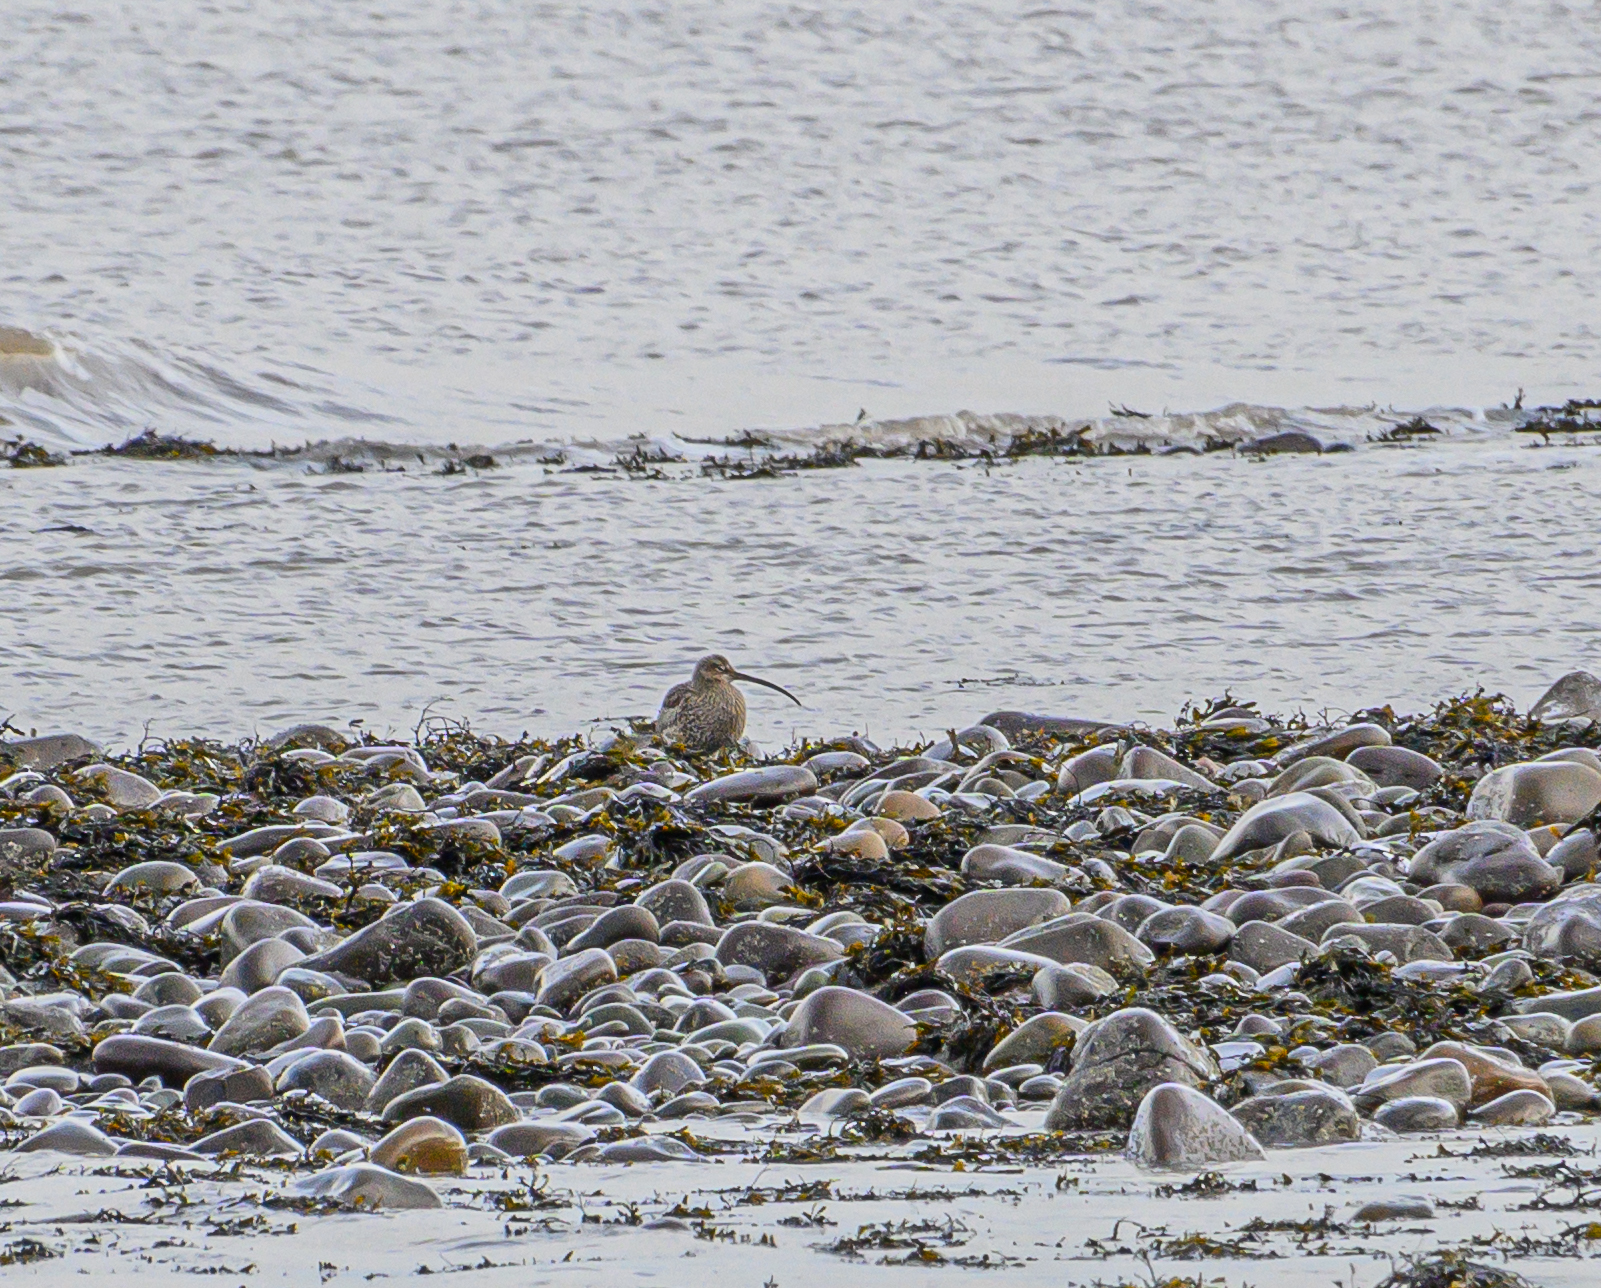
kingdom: Animalia
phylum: Chordata
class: Aves
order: Charadriiformes
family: Scolopacidae
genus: Numenius
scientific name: Numenius arquata
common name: Eurasian curlew
